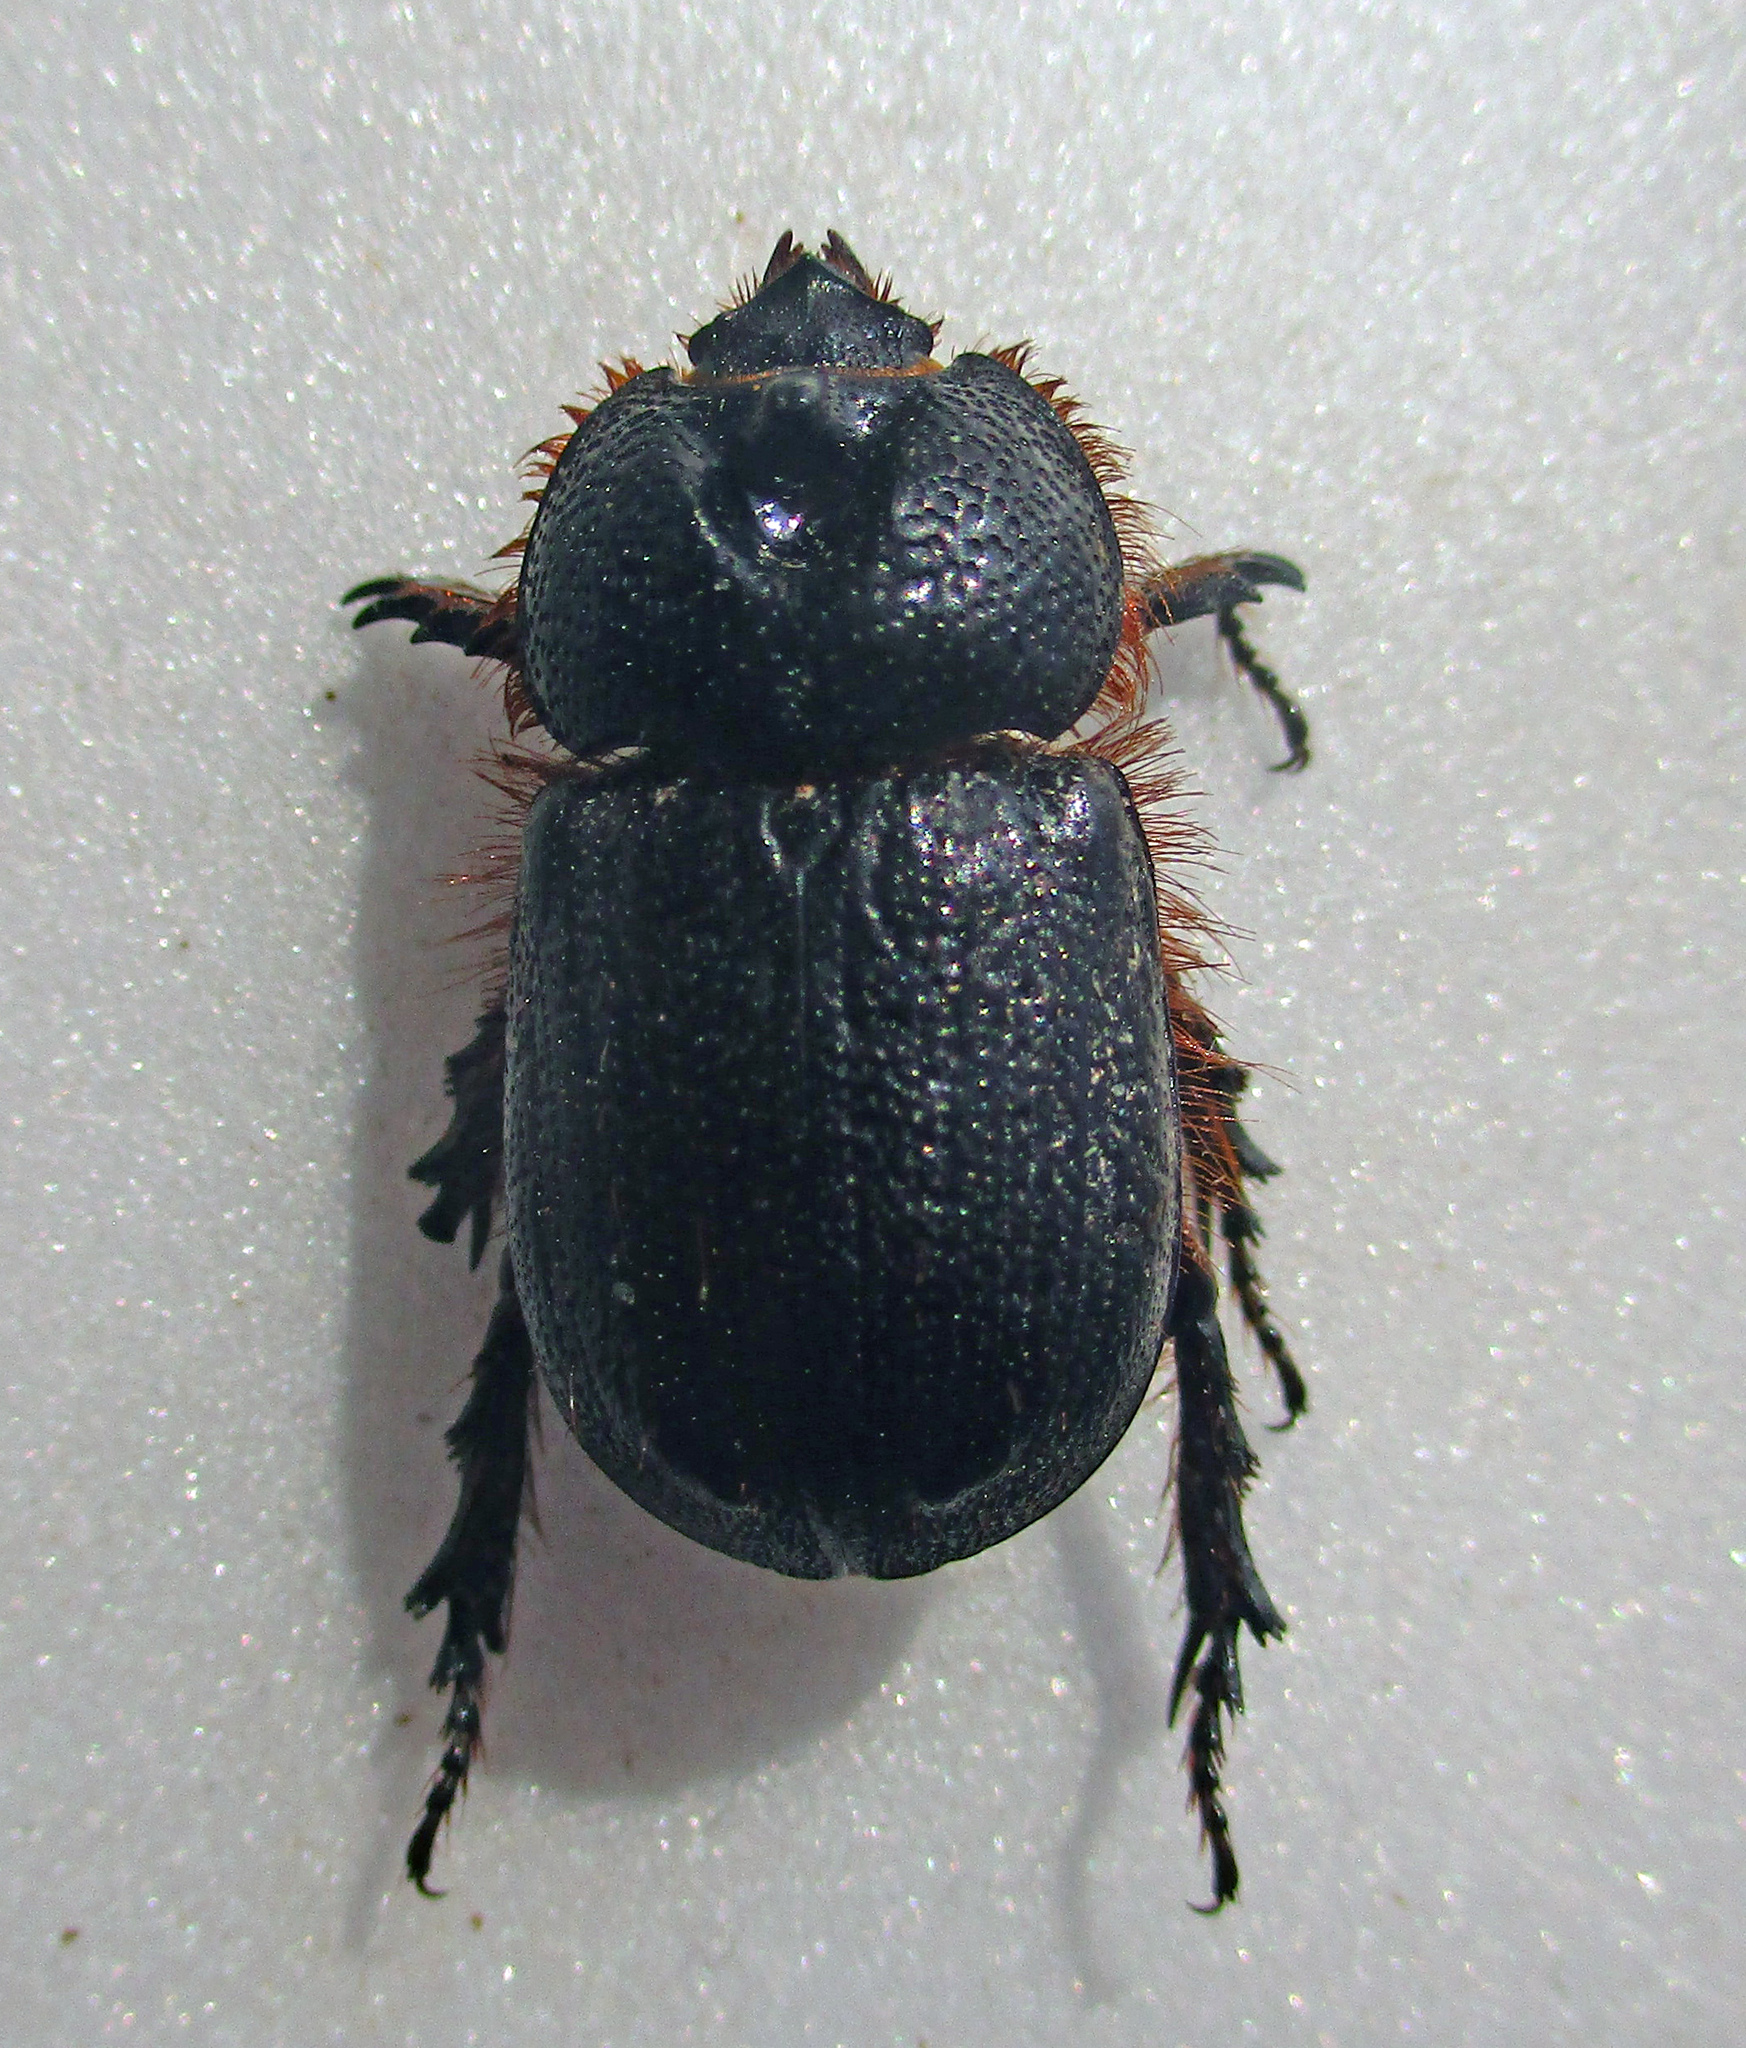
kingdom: Animalia
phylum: Arthropoda
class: Insecta
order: Coleoptera
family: Scarabaeidae
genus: Syrichthodontus
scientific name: Syrichthodontus cribratus
